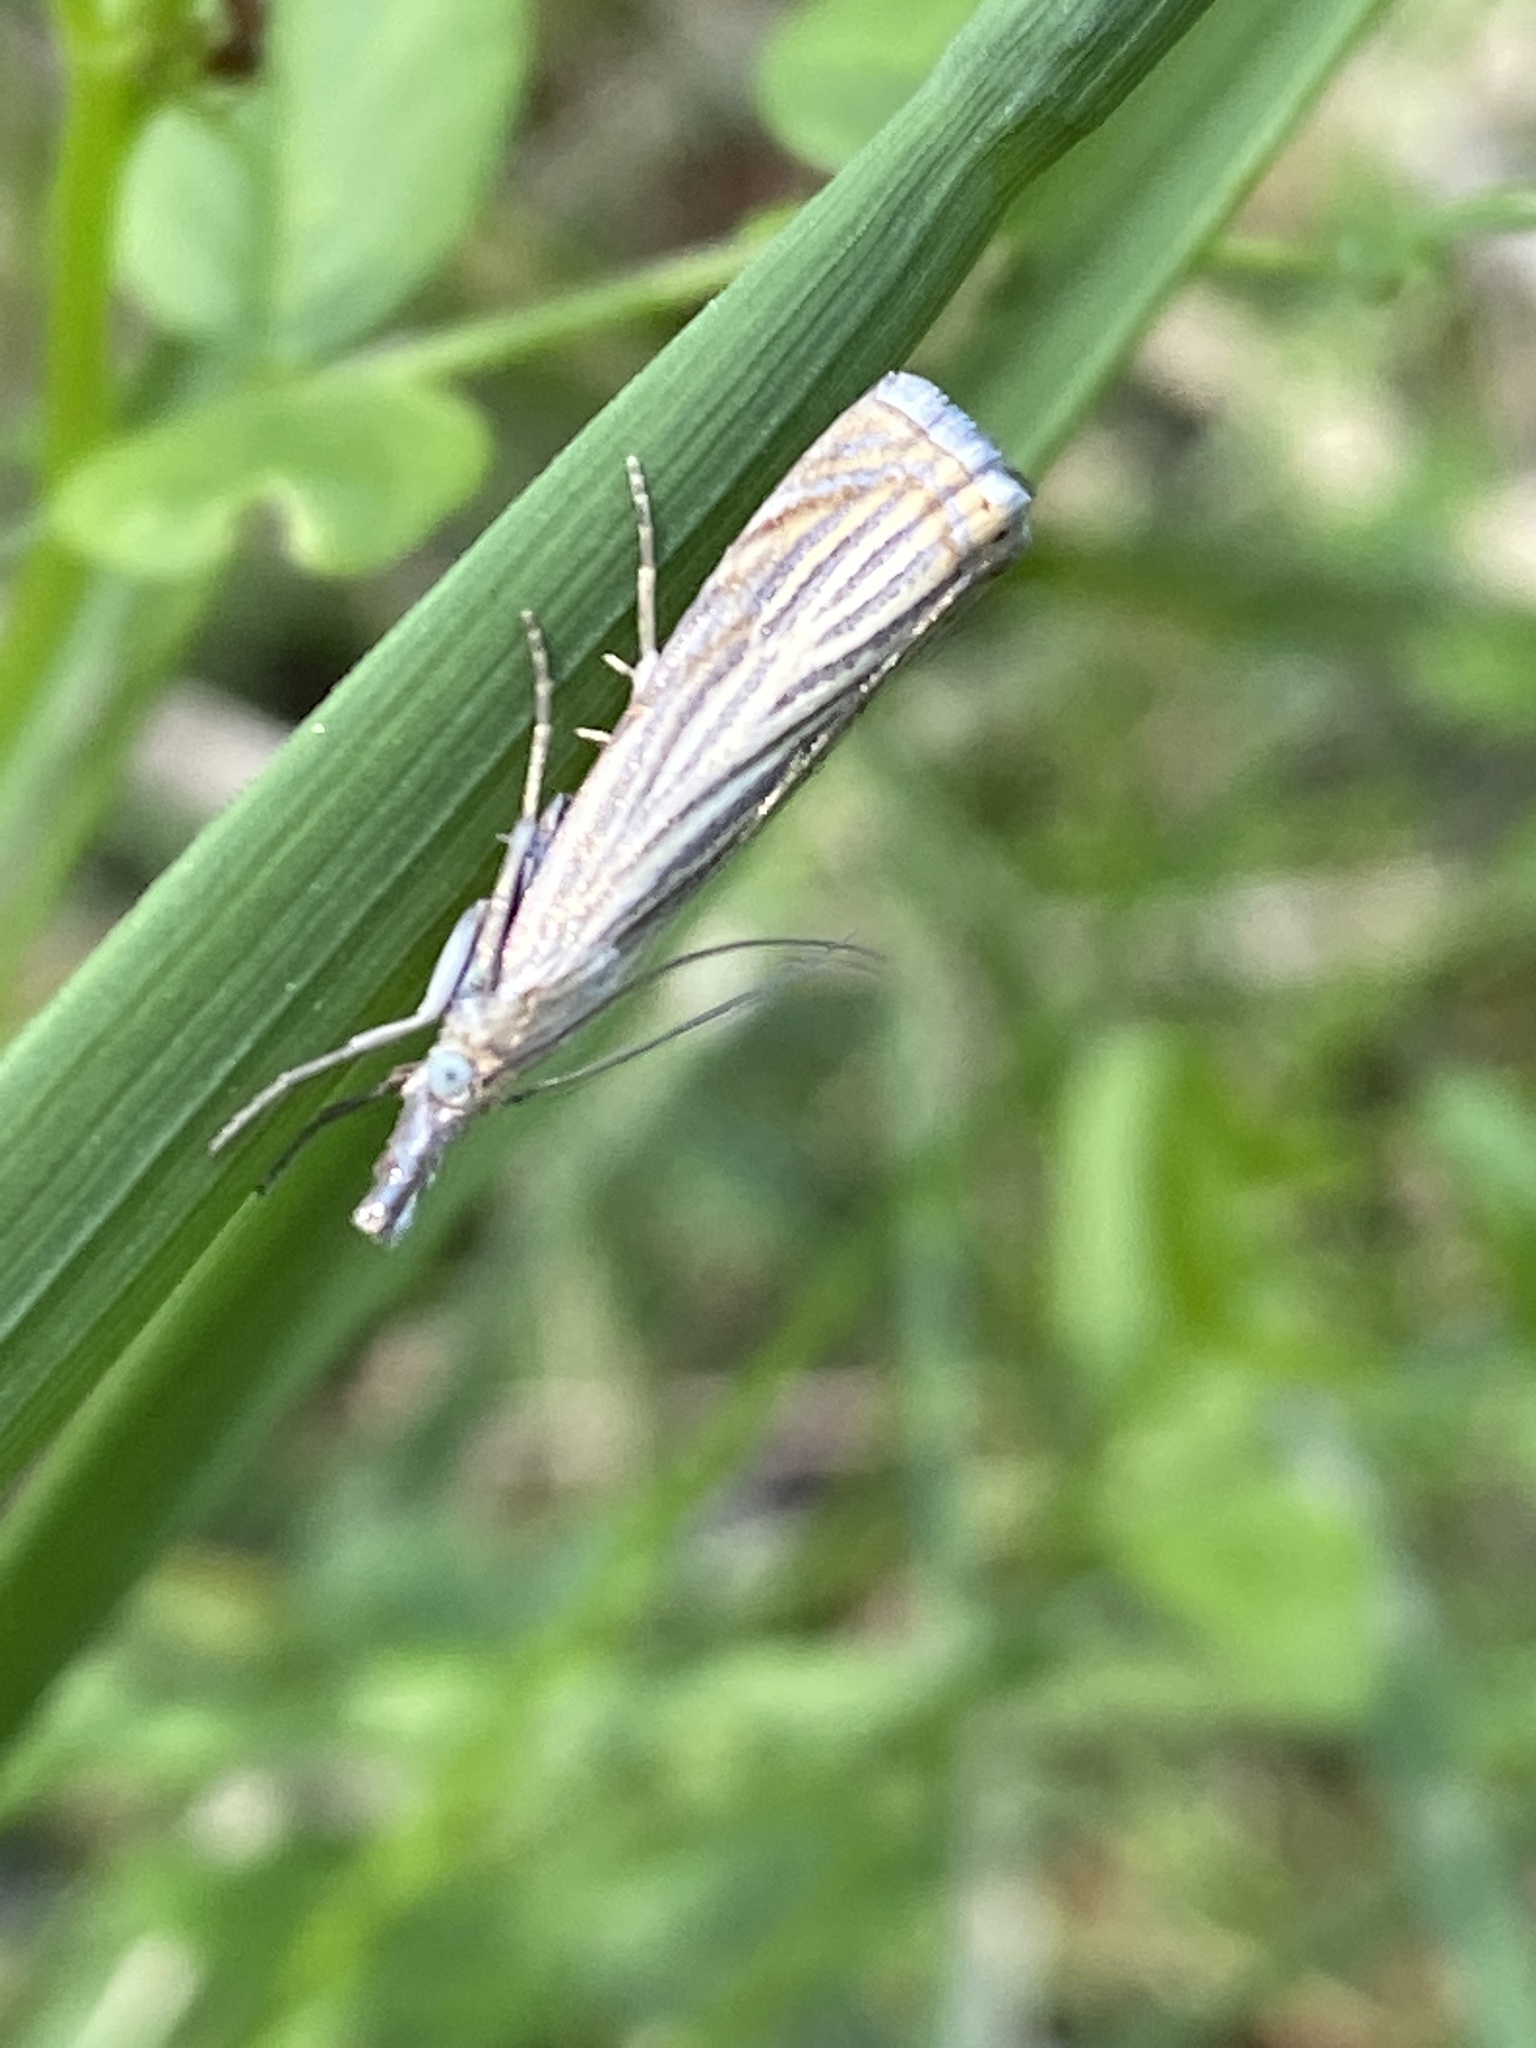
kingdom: Animalia
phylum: Arthropoda
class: Insecta
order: Lepidoptera
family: Crambidae
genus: Chrysoteuchia
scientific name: Chrysoteuchia culmella
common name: Garden grass-veneer
